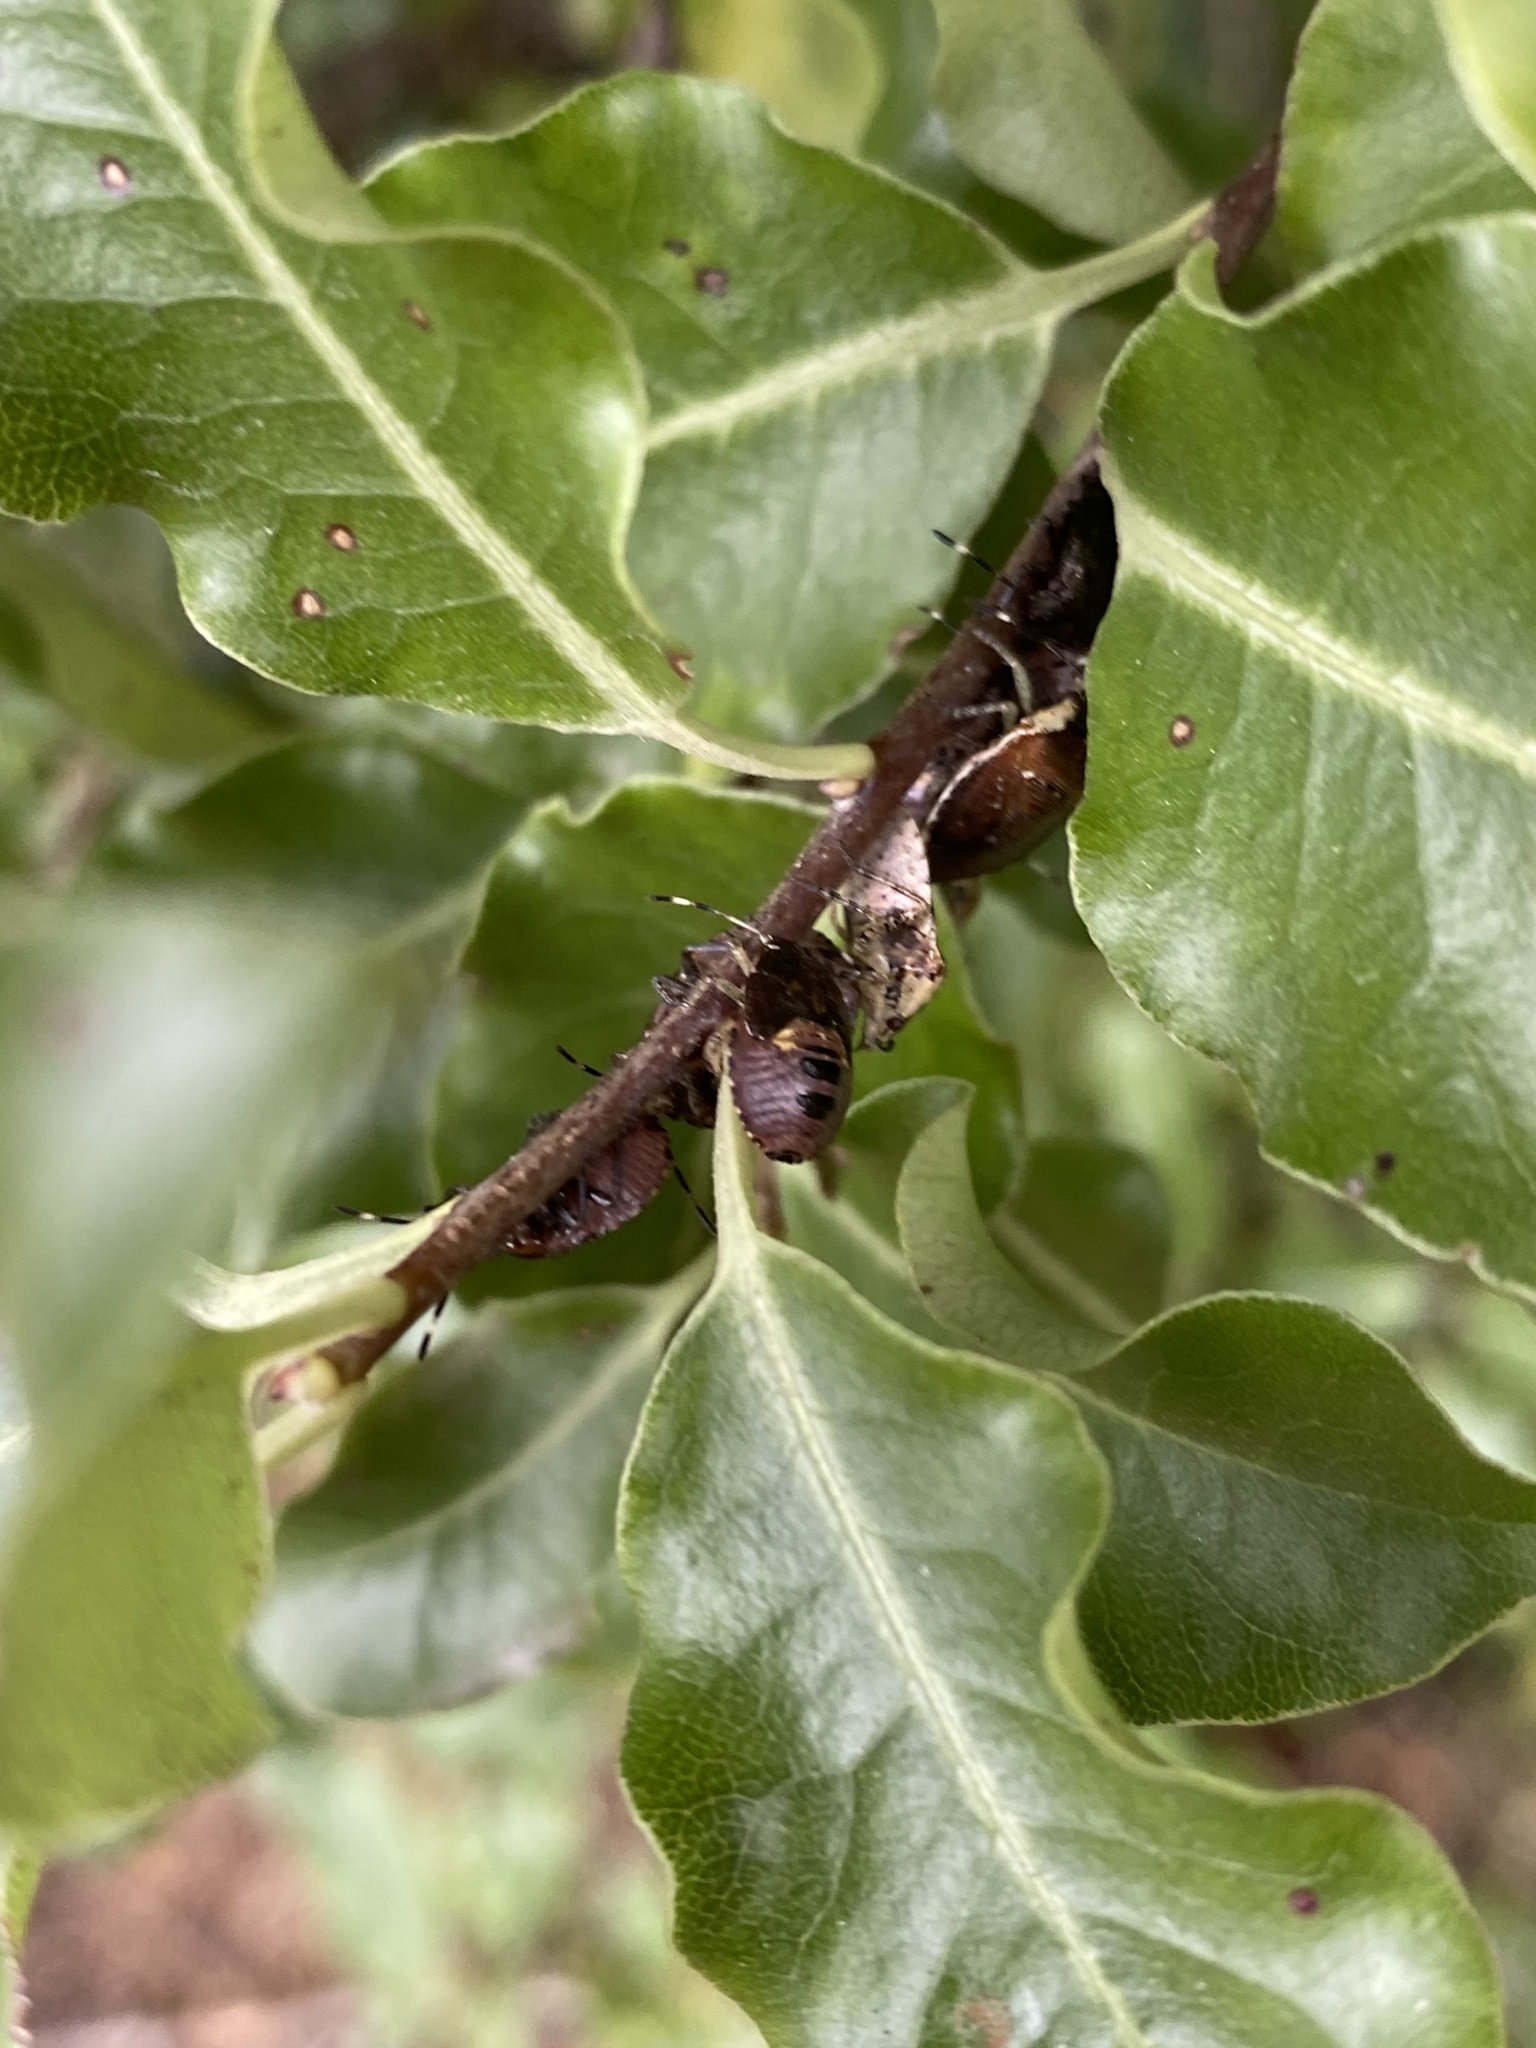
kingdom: Animalia
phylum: Arthropoda
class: Insecta
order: Hemiptera
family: Pentatomidae
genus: Monteithiella
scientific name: Monteithiella
